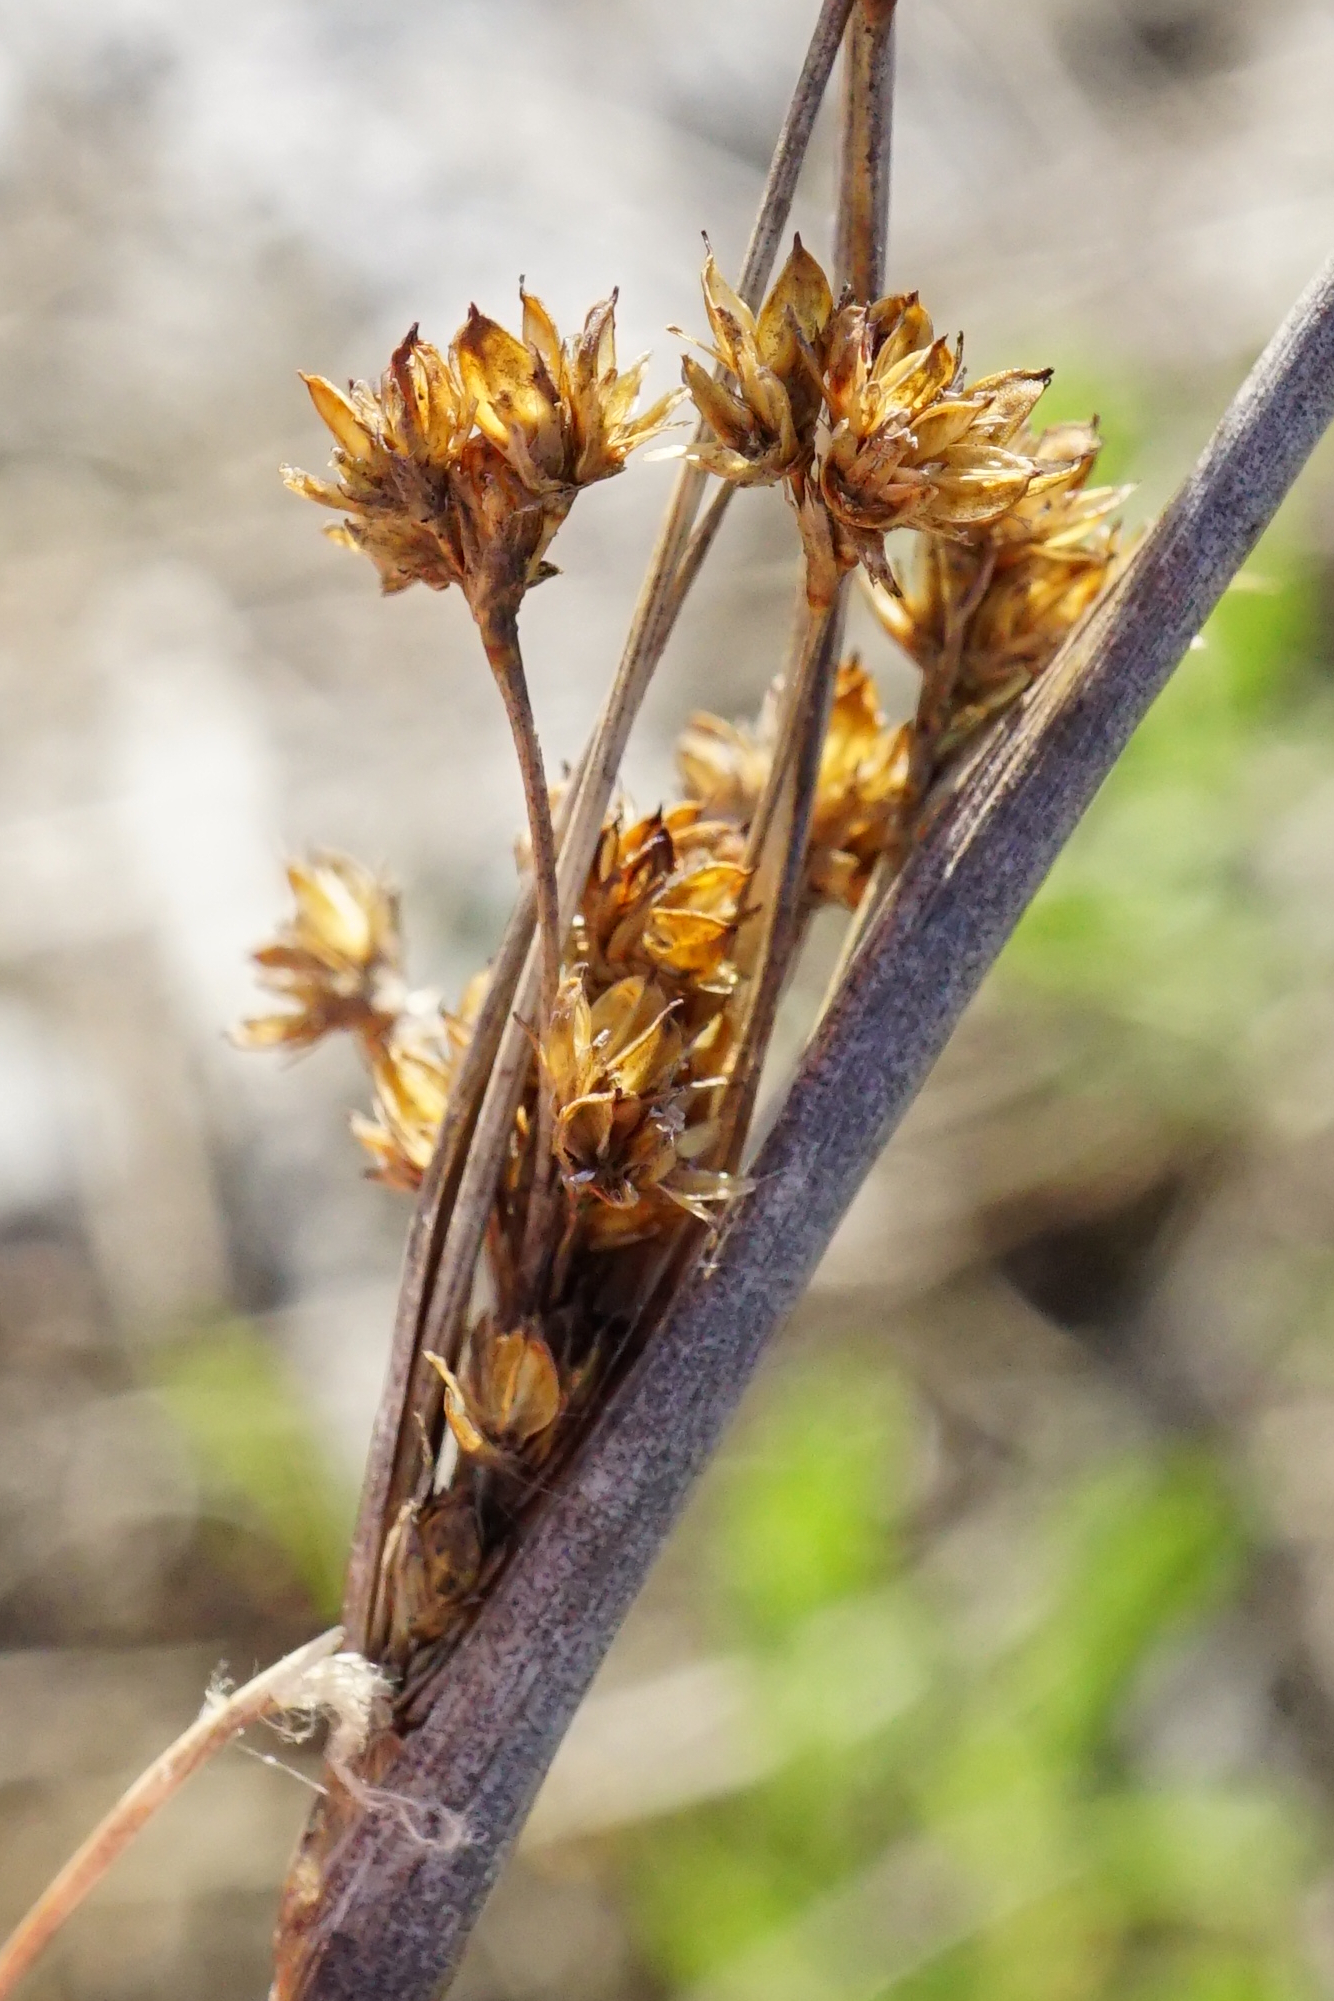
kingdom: Plantae
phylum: Tracheophyta
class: Liliopsida
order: Poales
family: Juncaceae
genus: Juncus
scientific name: Juncus maritimus
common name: Sea rush
